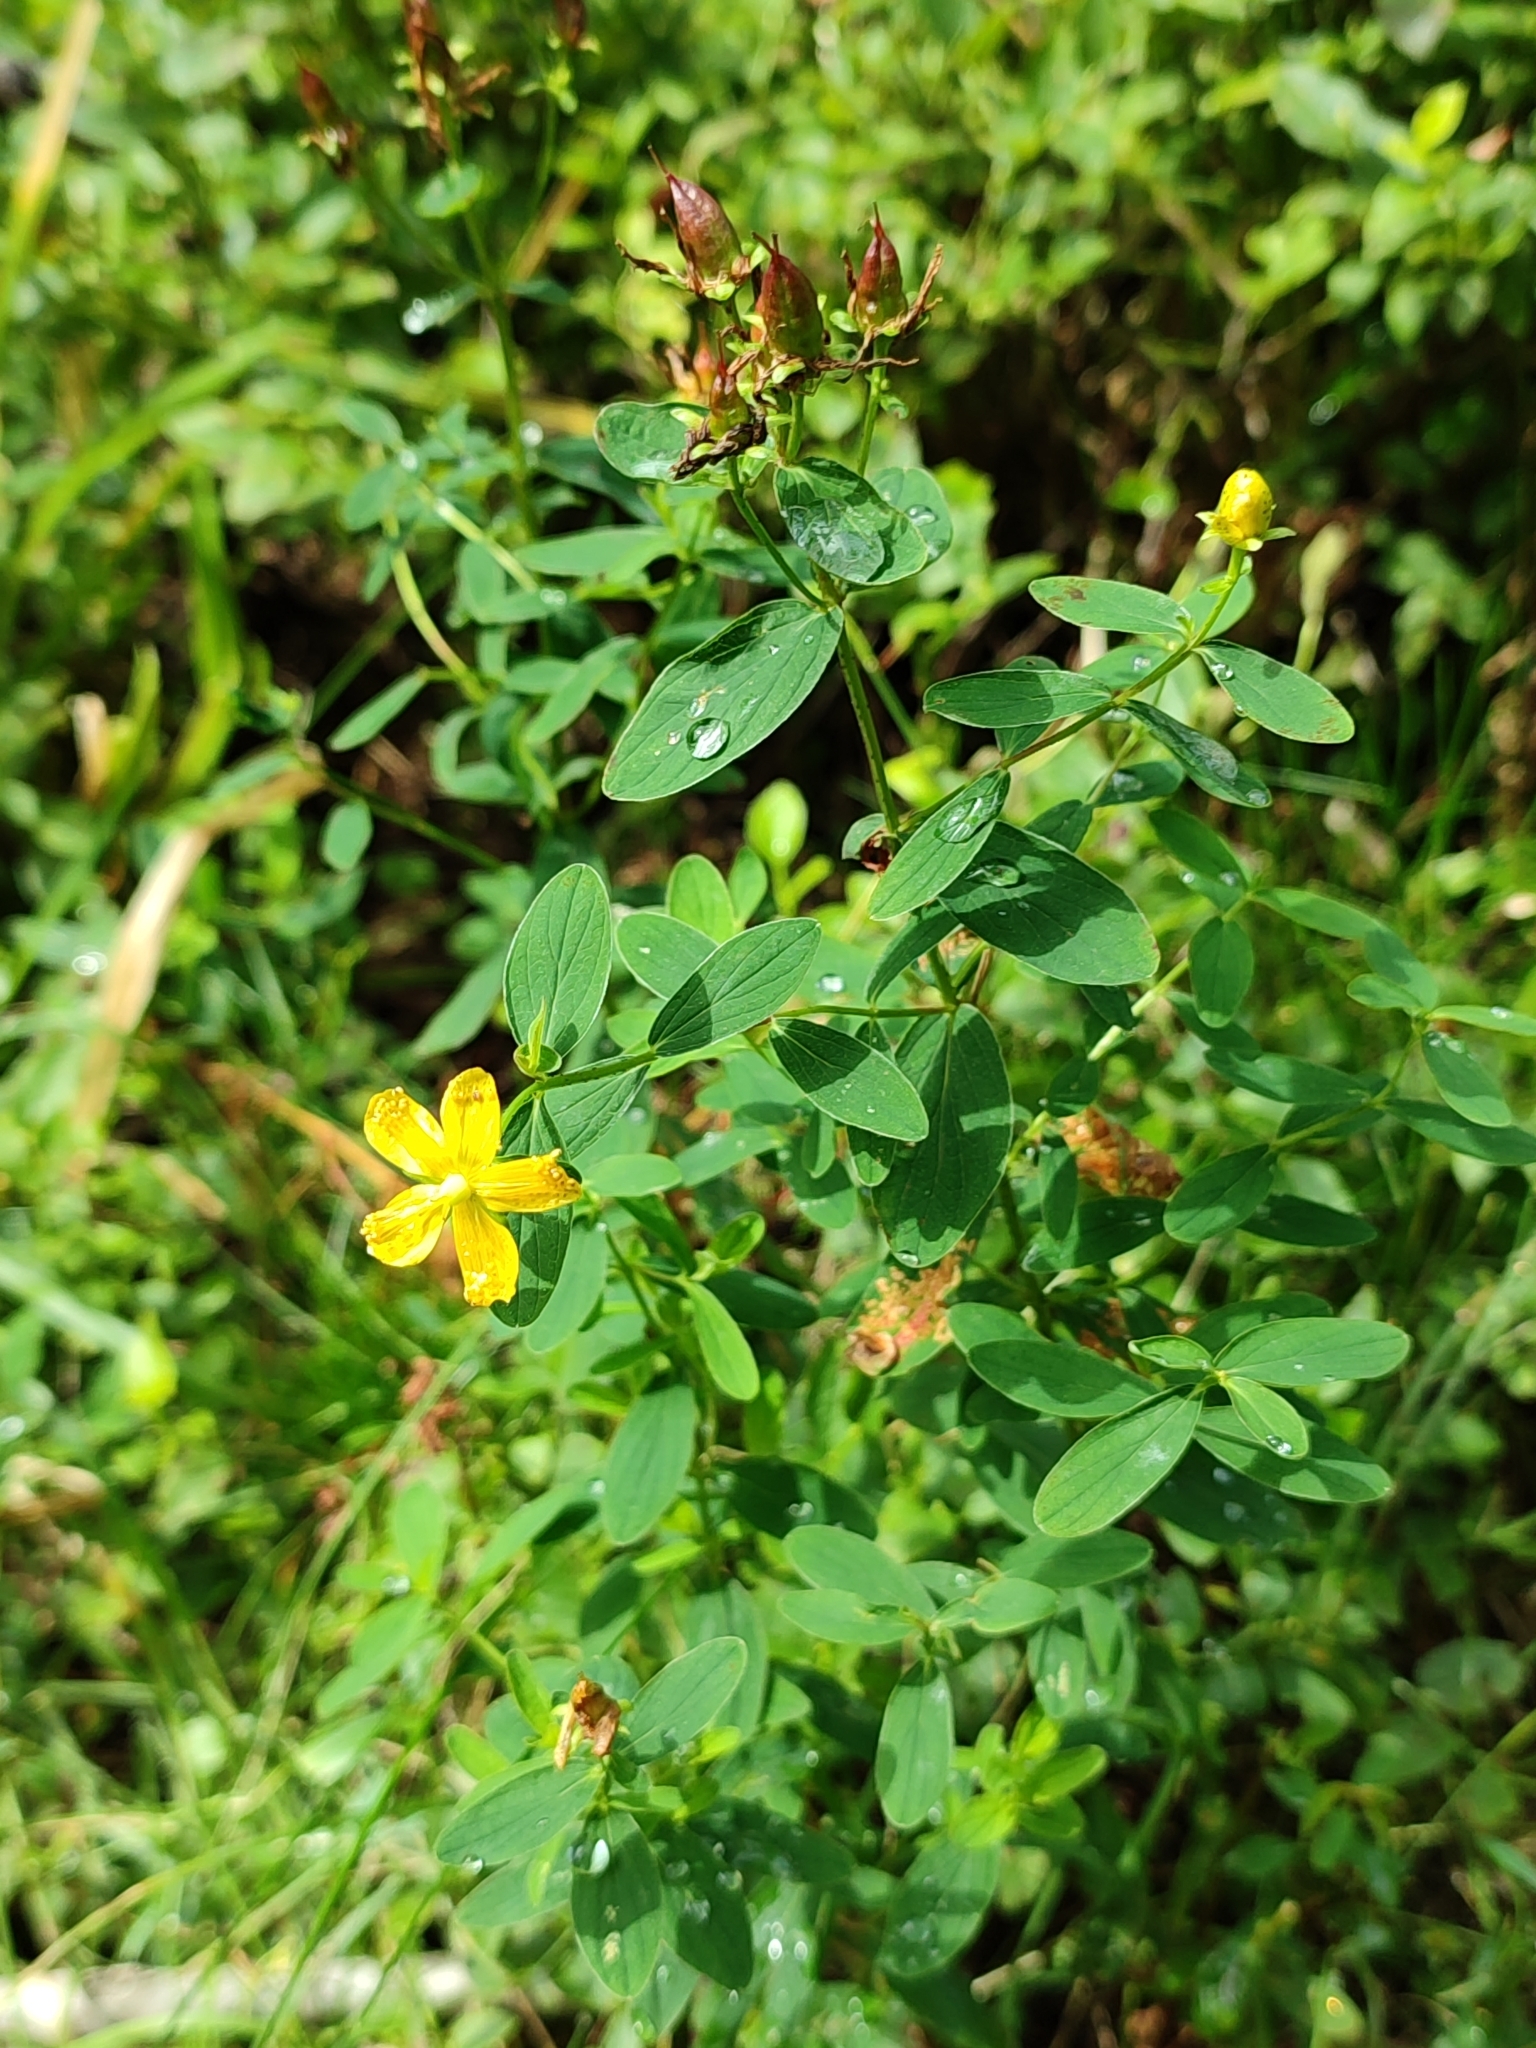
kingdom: Plantae
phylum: Tracheophyta
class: Magnoliopsida
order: Malpighiales
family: Hypericaceae
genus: Hypericum
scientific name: Hypericum maculatum
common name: Imperforate st. john's-wort
